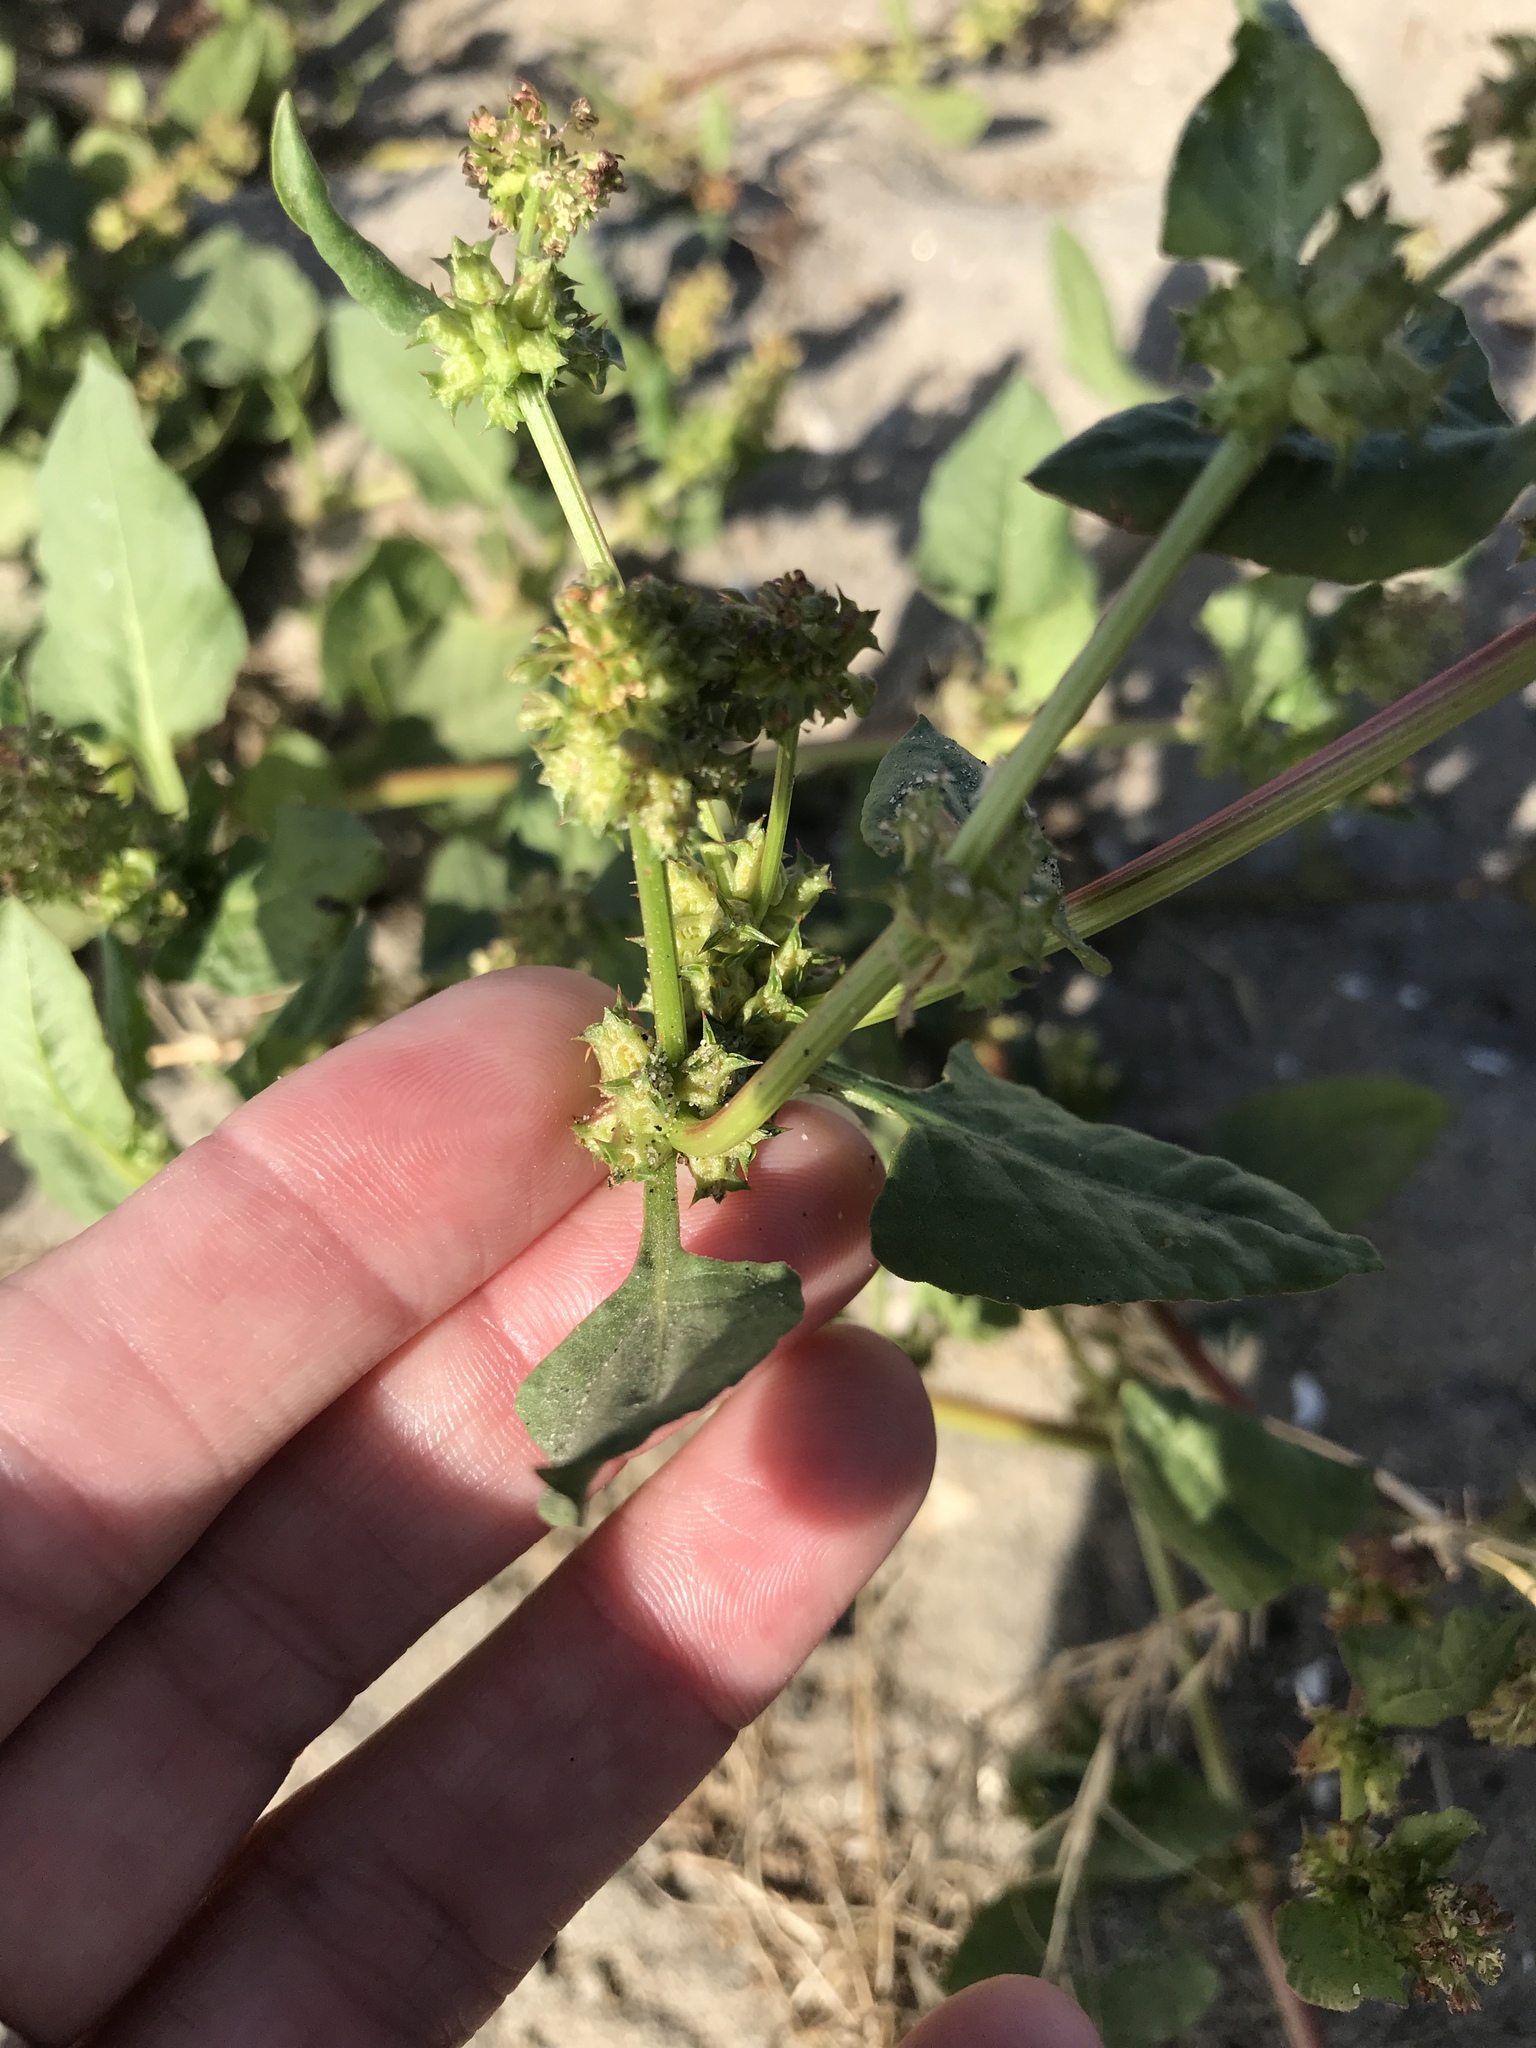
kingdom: Plantae
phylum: Tracheophyta
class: Magnoliopsida
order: Caryophyllales
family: Polygonaceae
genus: Rumex
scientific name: Rumex spinosus
